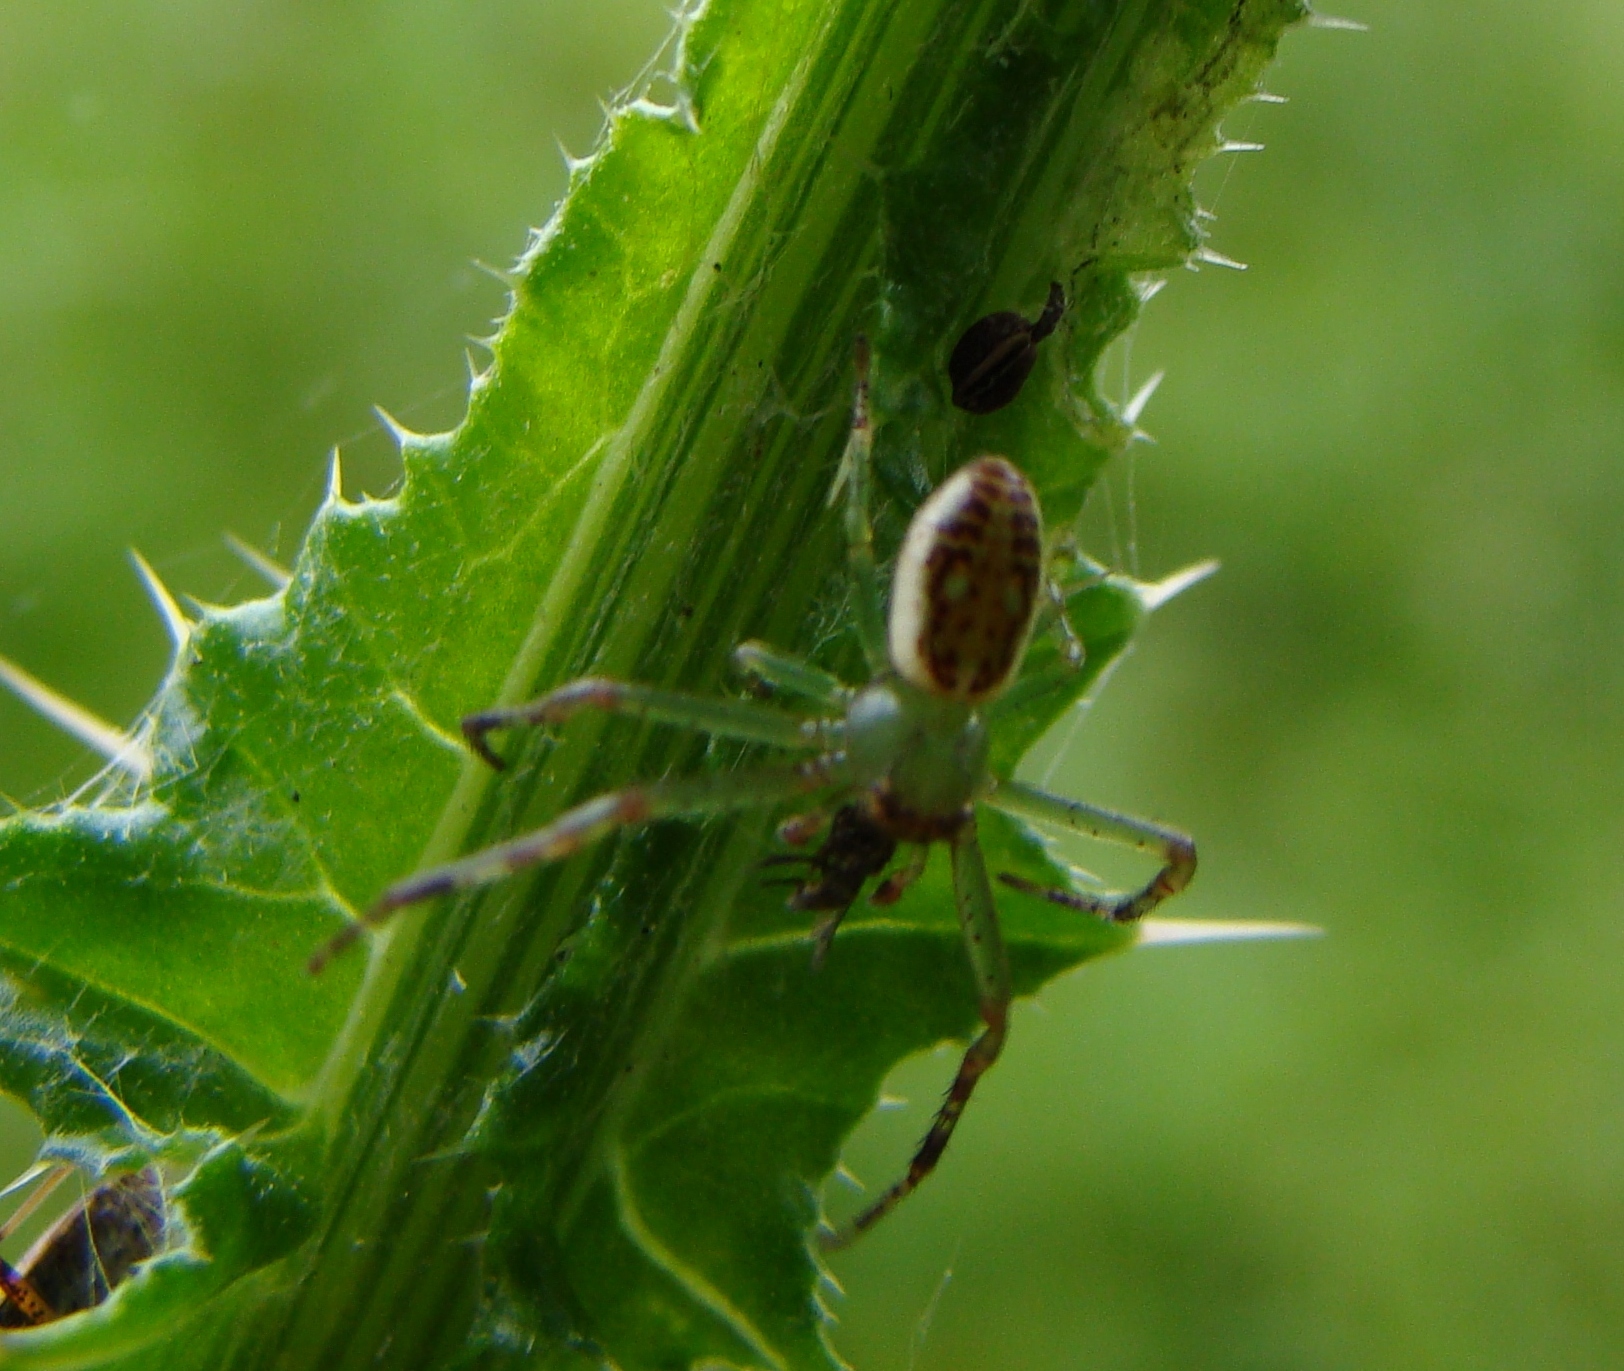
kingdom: Animalia
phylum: Arthropoda
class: Arachnida
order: Araneae
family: Thomisidae
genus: Diaea
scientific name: Diaea ambara
